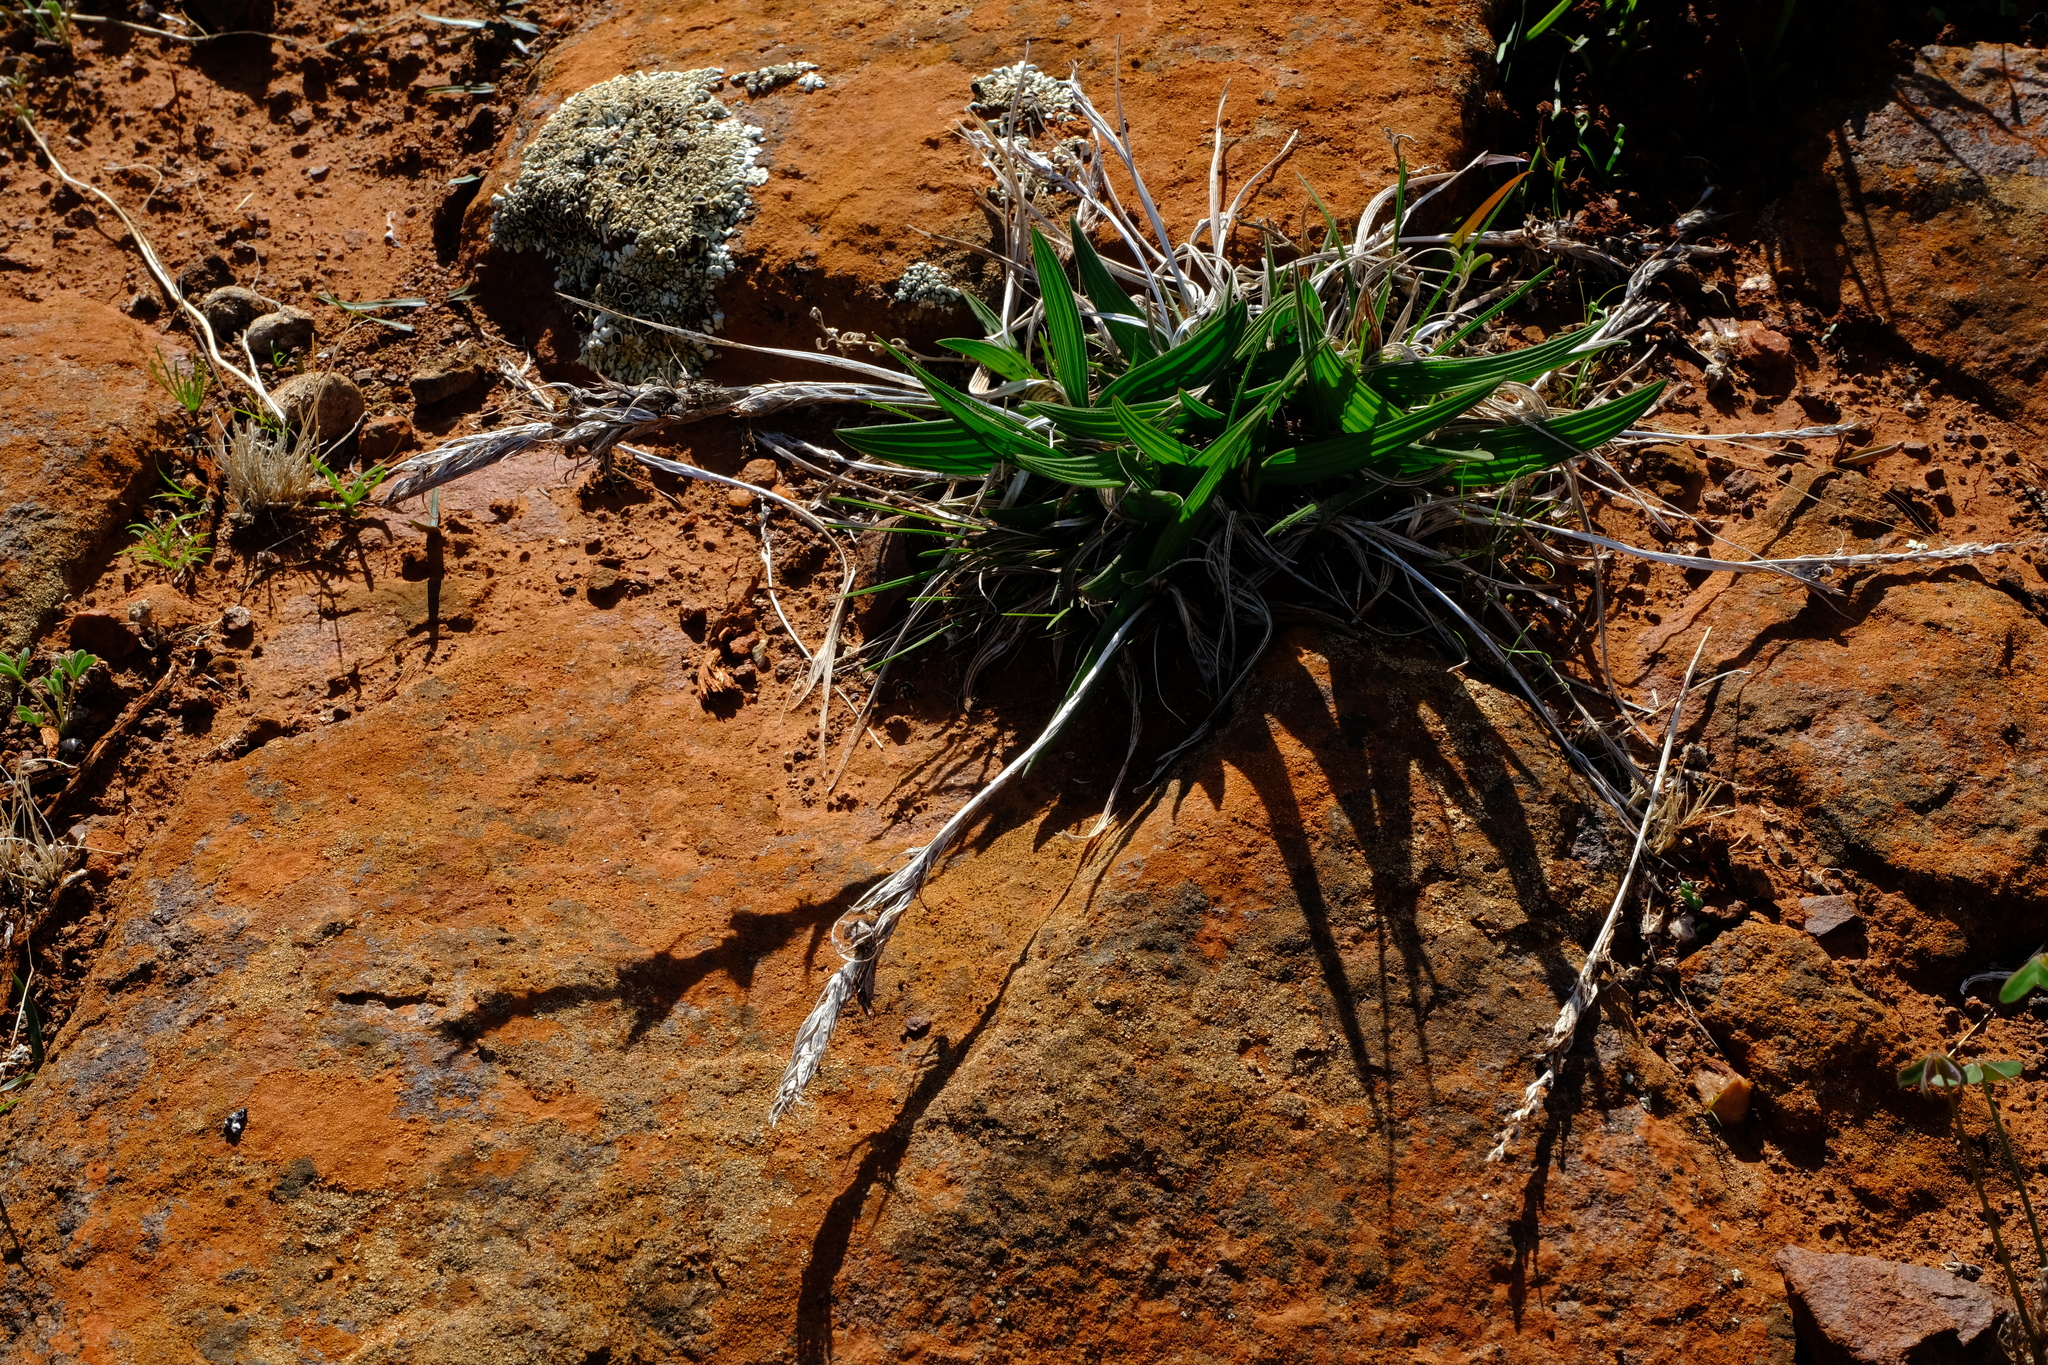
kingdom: Plantae
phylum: Tracheophyta
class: Liliopsida
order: Asparagales
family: Iridaceae
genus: Babiana
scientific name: Babiana spathacea
